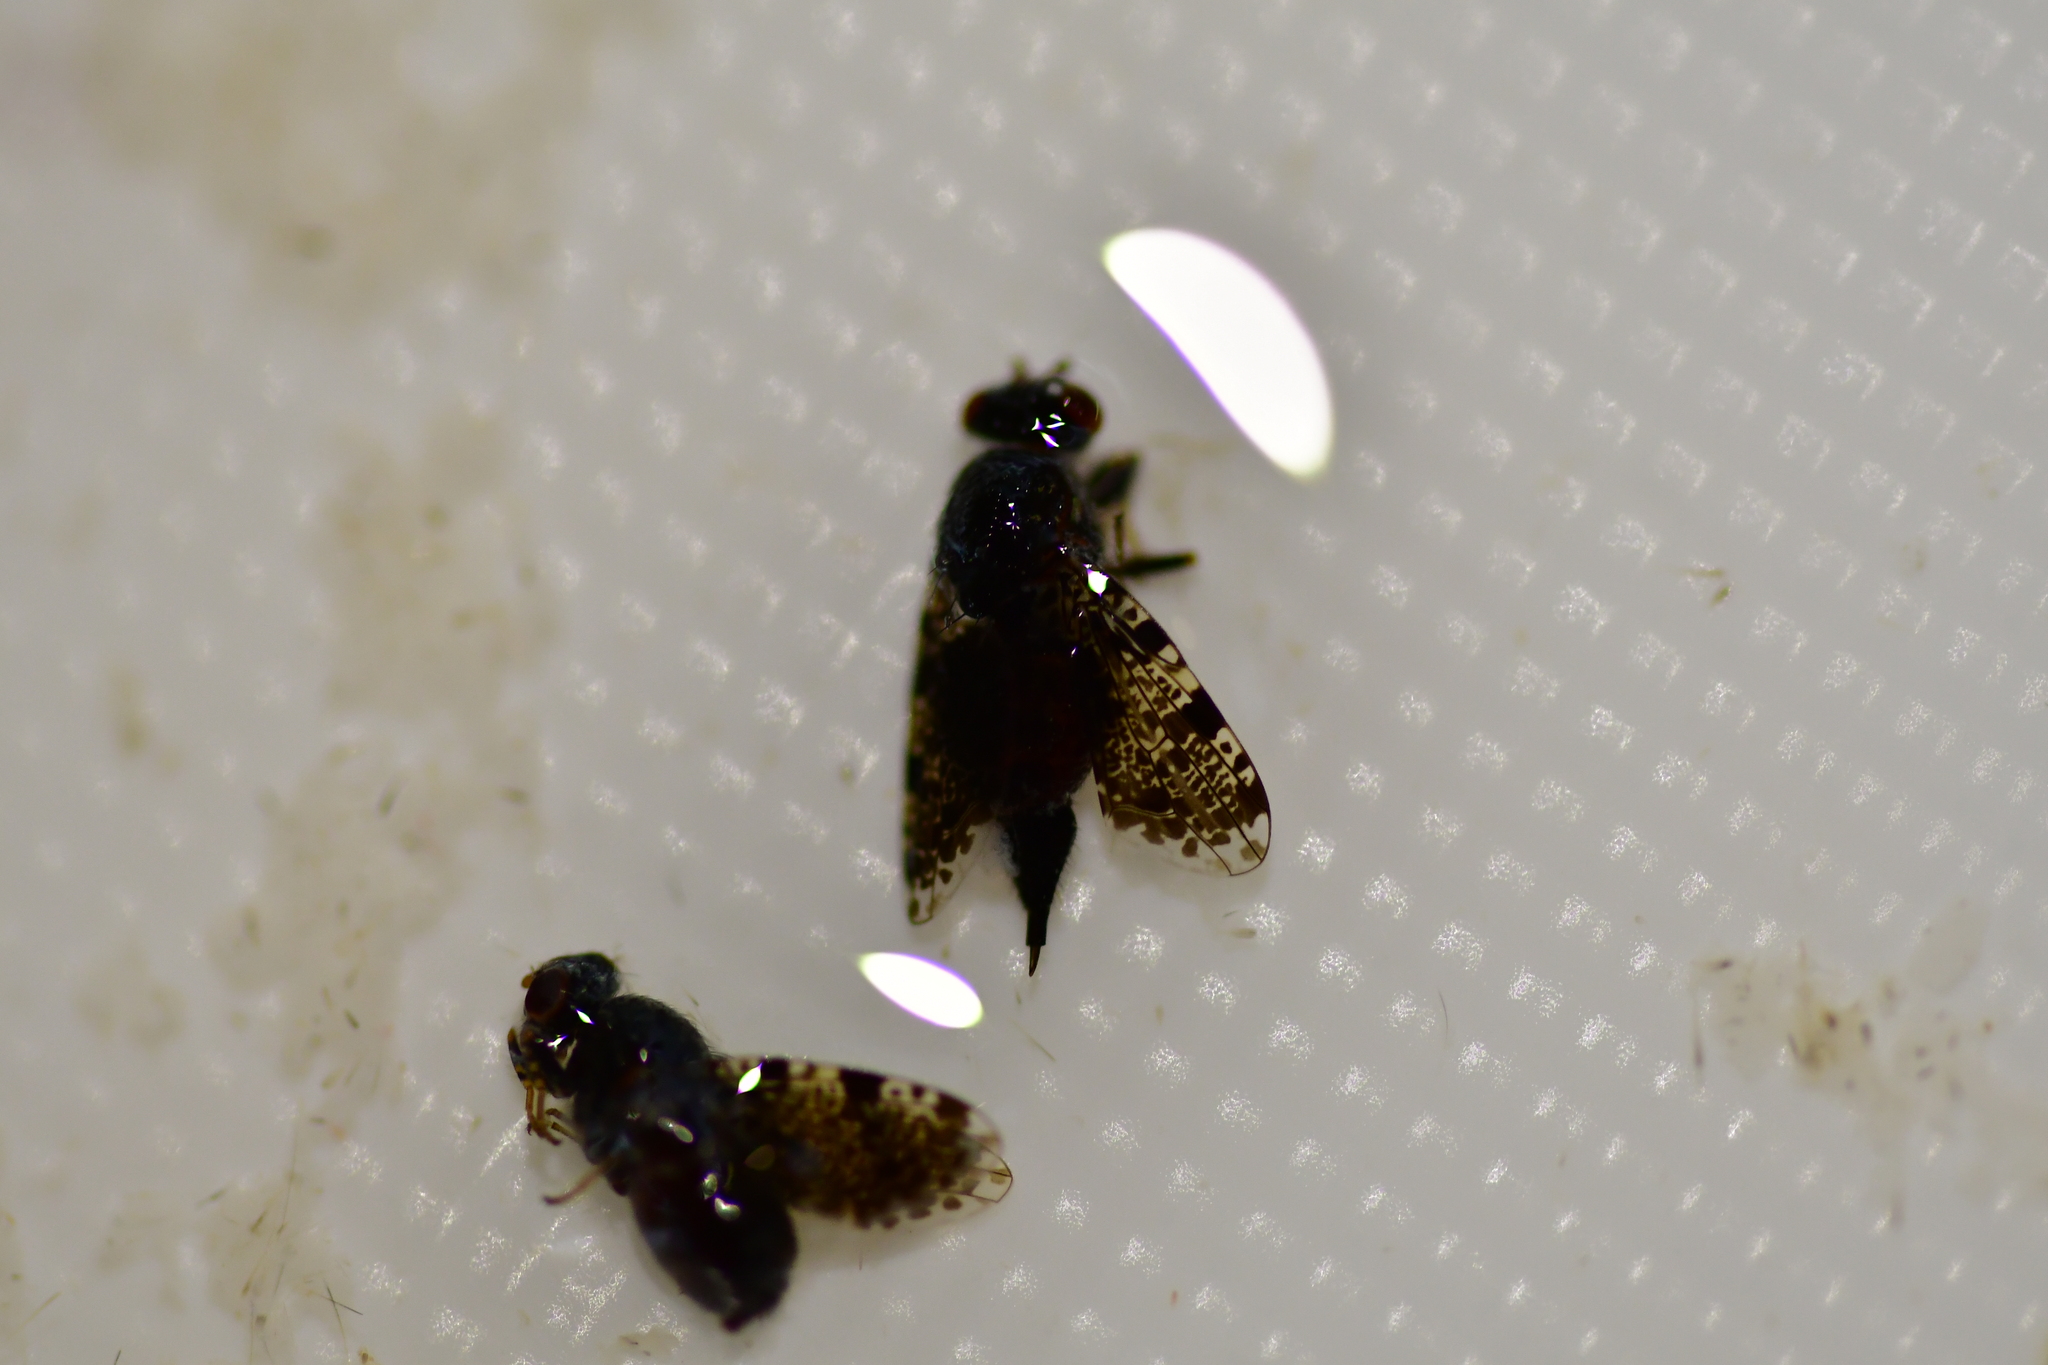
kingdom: Animalia
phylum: Arthropoda
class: Insecta
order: Diptera
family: Ulidiidae
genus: Callopistromyia
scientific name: Callopistromyia annulipes
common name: Peacock fly
